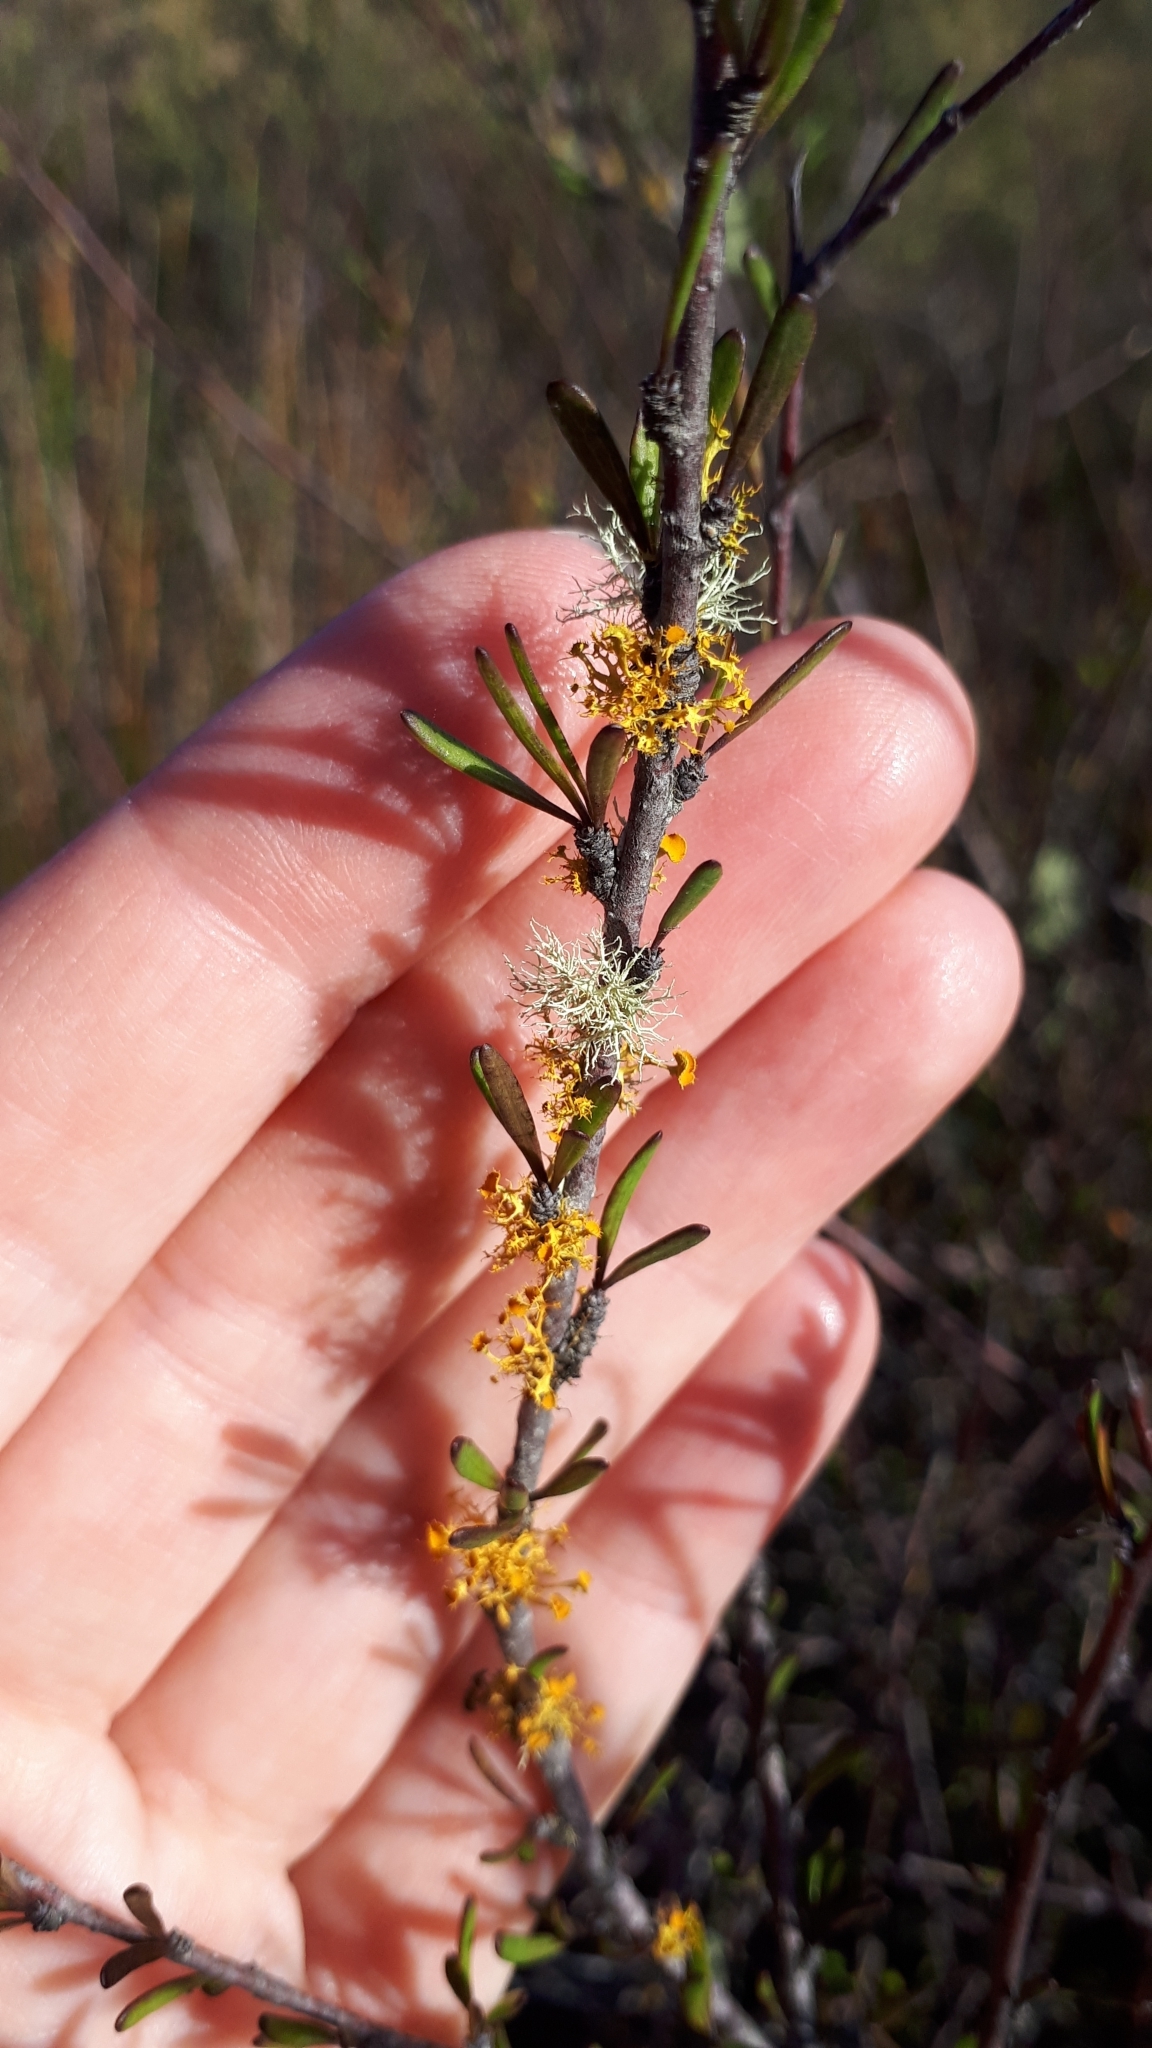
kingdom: Fungi
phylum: Ascomycota
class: Lecanoromycetes
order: Teloschistales
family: Teloschistaceae
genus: Niorma
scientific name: Niorma chrysophthalma
